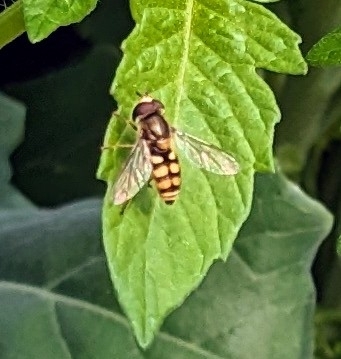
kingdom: Animalia
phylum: Arthropoda
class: Insecta
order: Diptera
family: Syrphidae
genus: Eupeodes
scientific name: Eupeodes corollae
